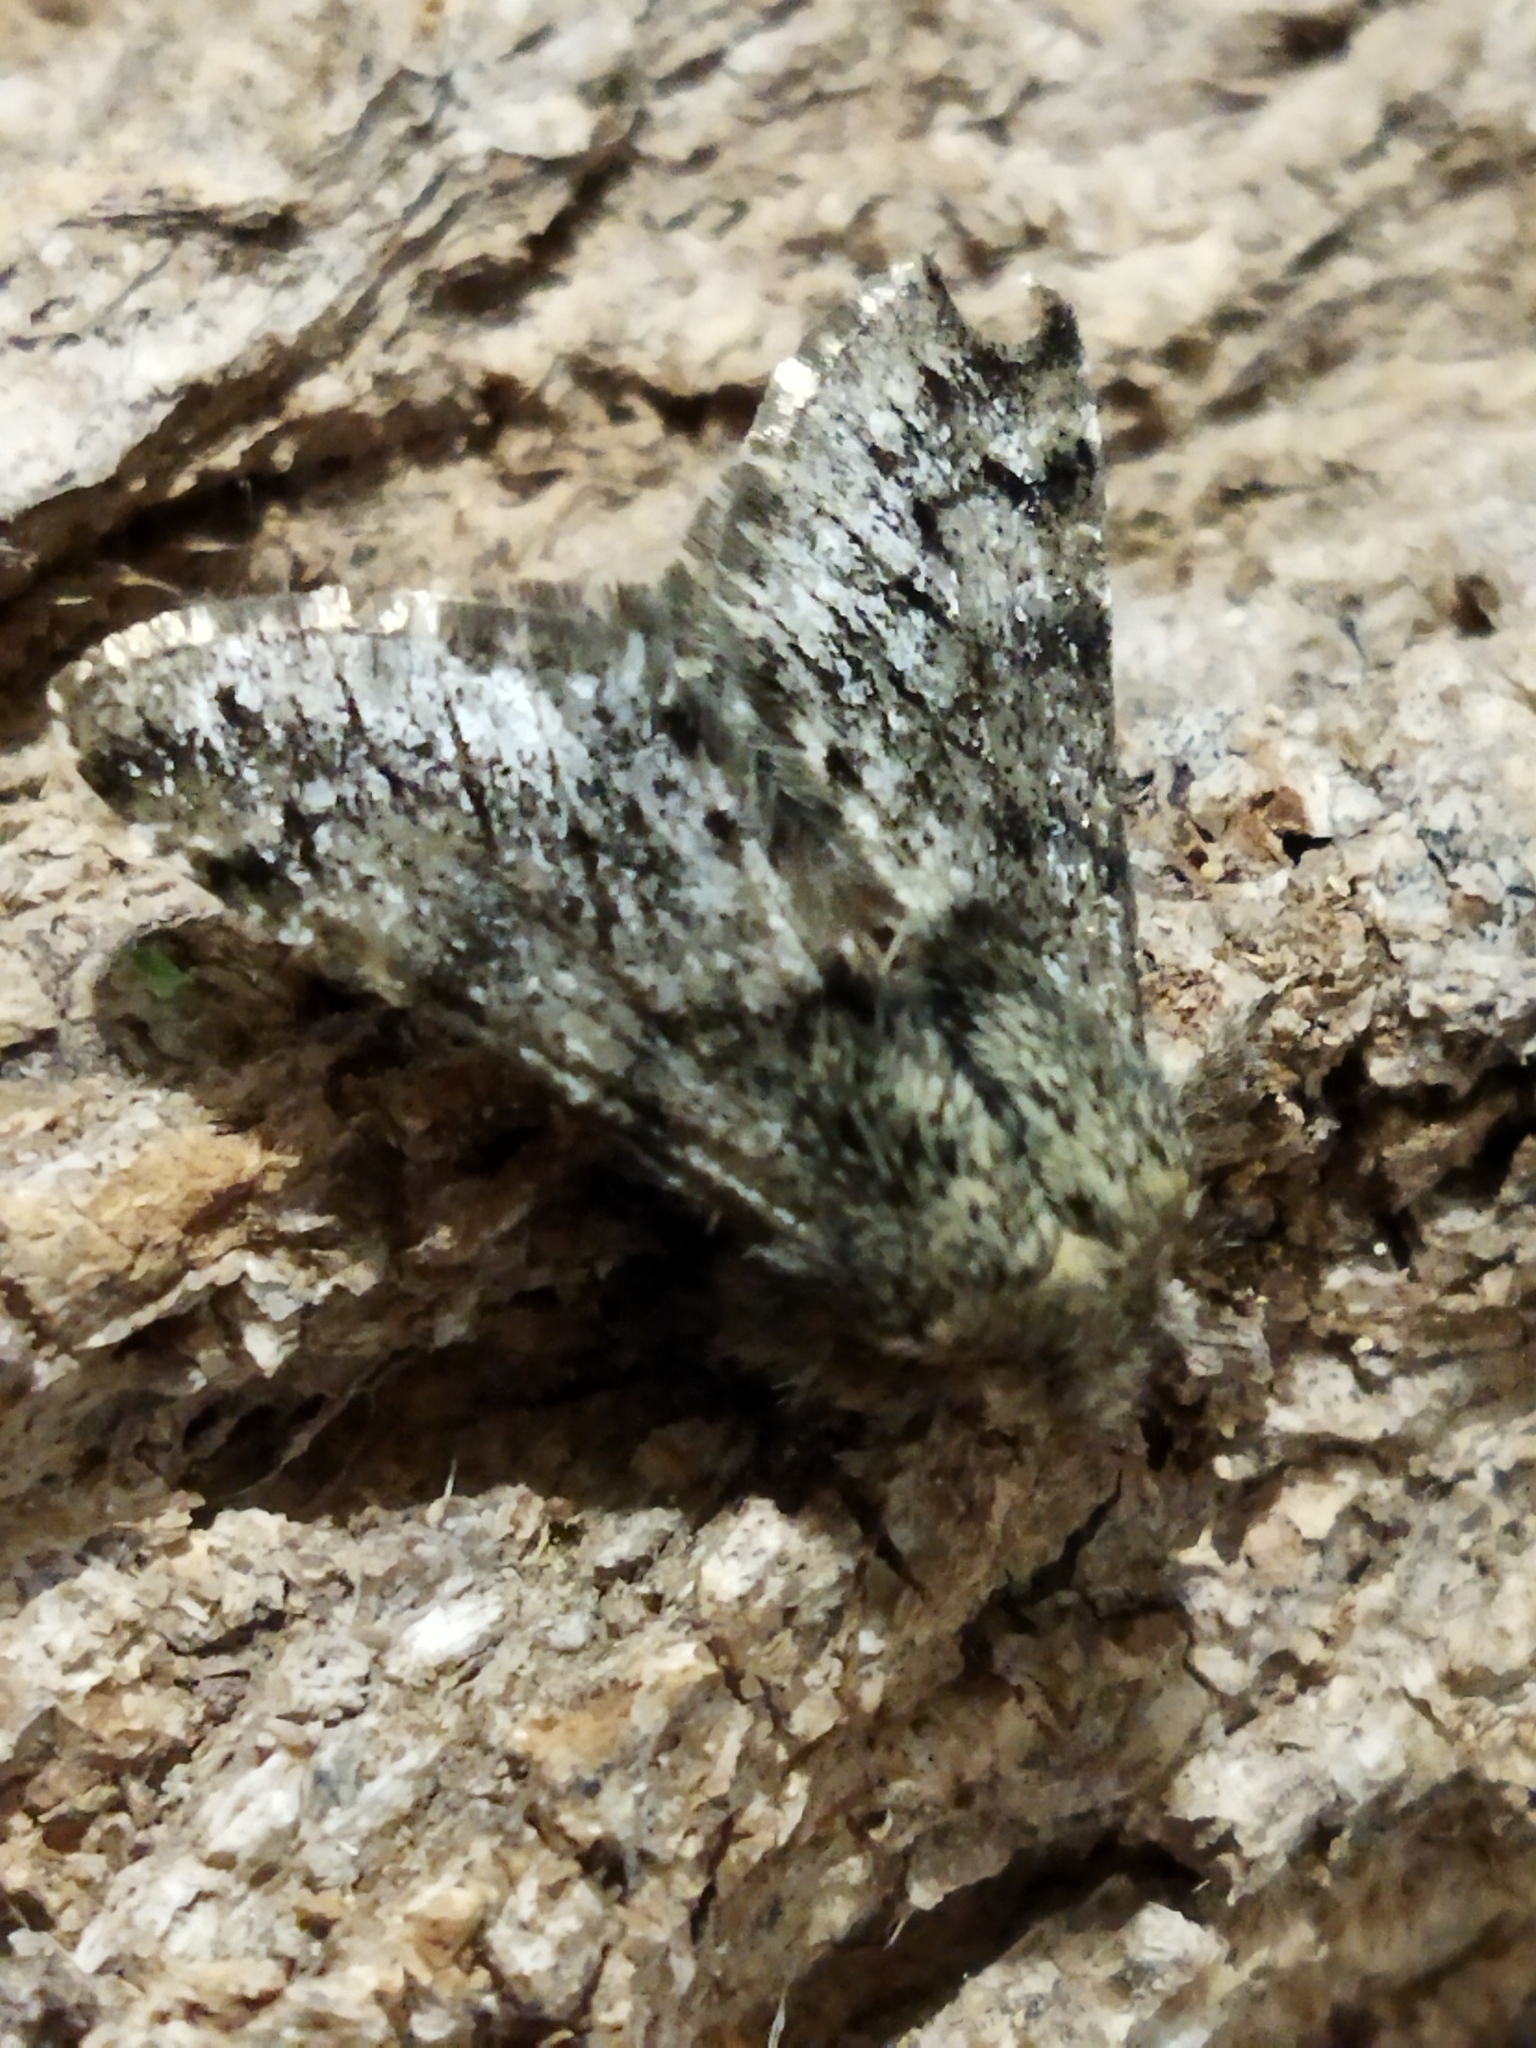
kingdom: Animalia
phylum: Arthropoda
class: Insecta
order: Lepidoptera
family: Geometridae
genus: Apocheima
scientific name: Apocheima hispidaria
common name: Small brindled beauty
